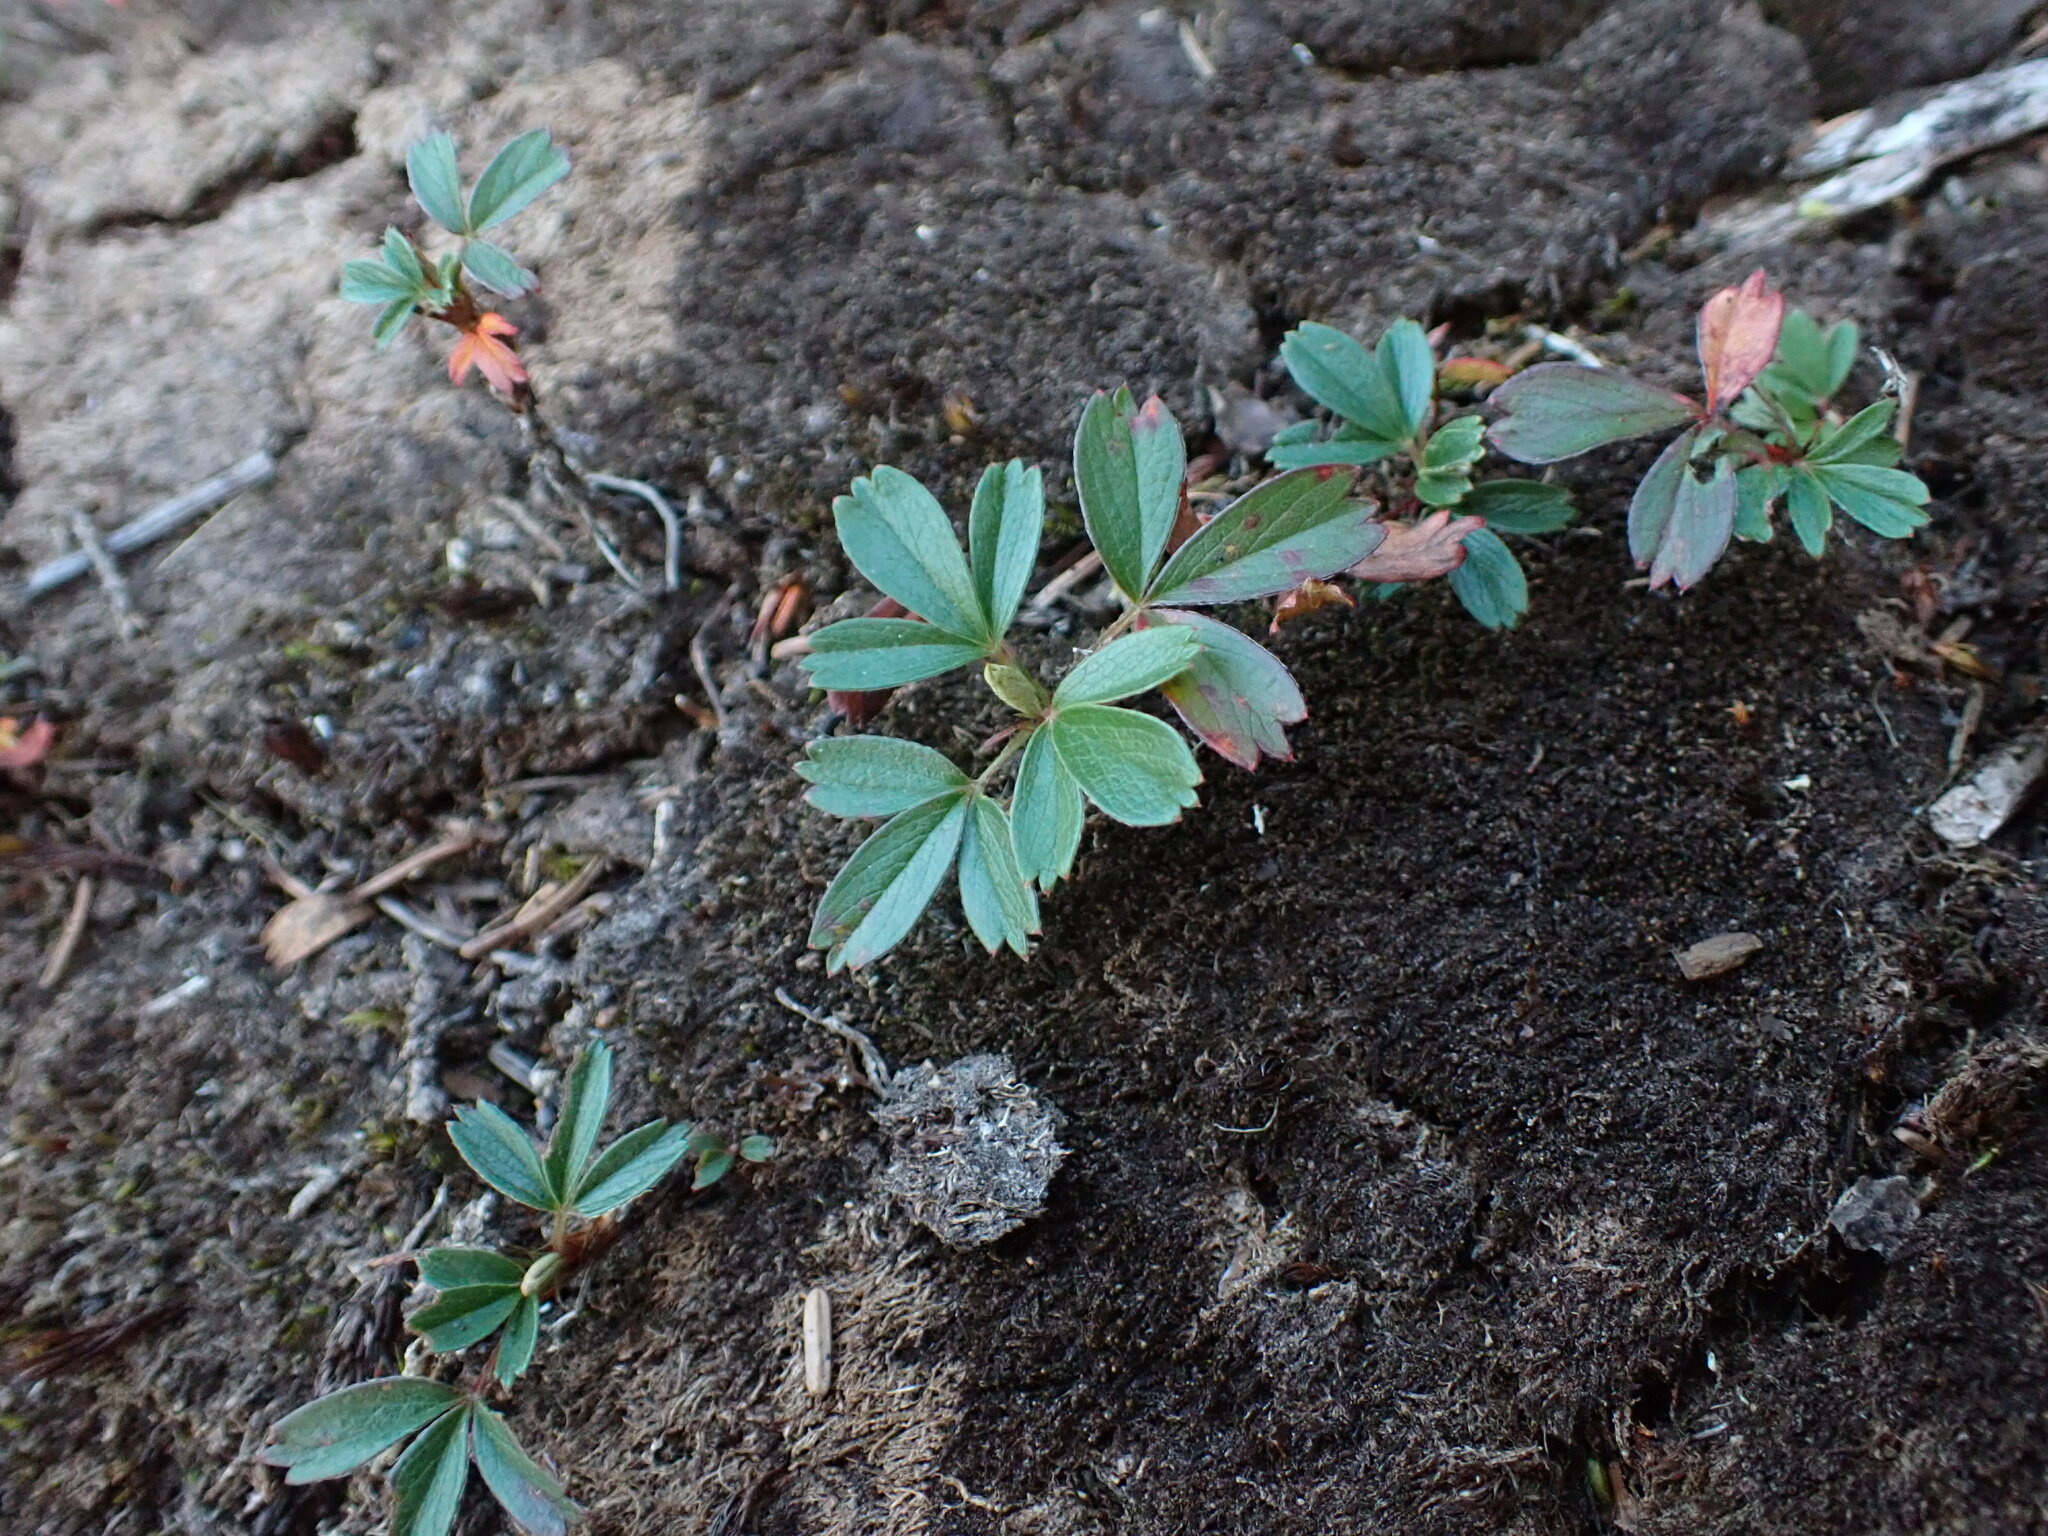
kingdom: Plantae
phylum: Tracheophyta
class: Magnoliopsida
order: Rosales
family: Rosaceae
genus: Sibbaldia
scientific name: Sibbaldia tridentata
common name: Three-toothed cinquefoil
